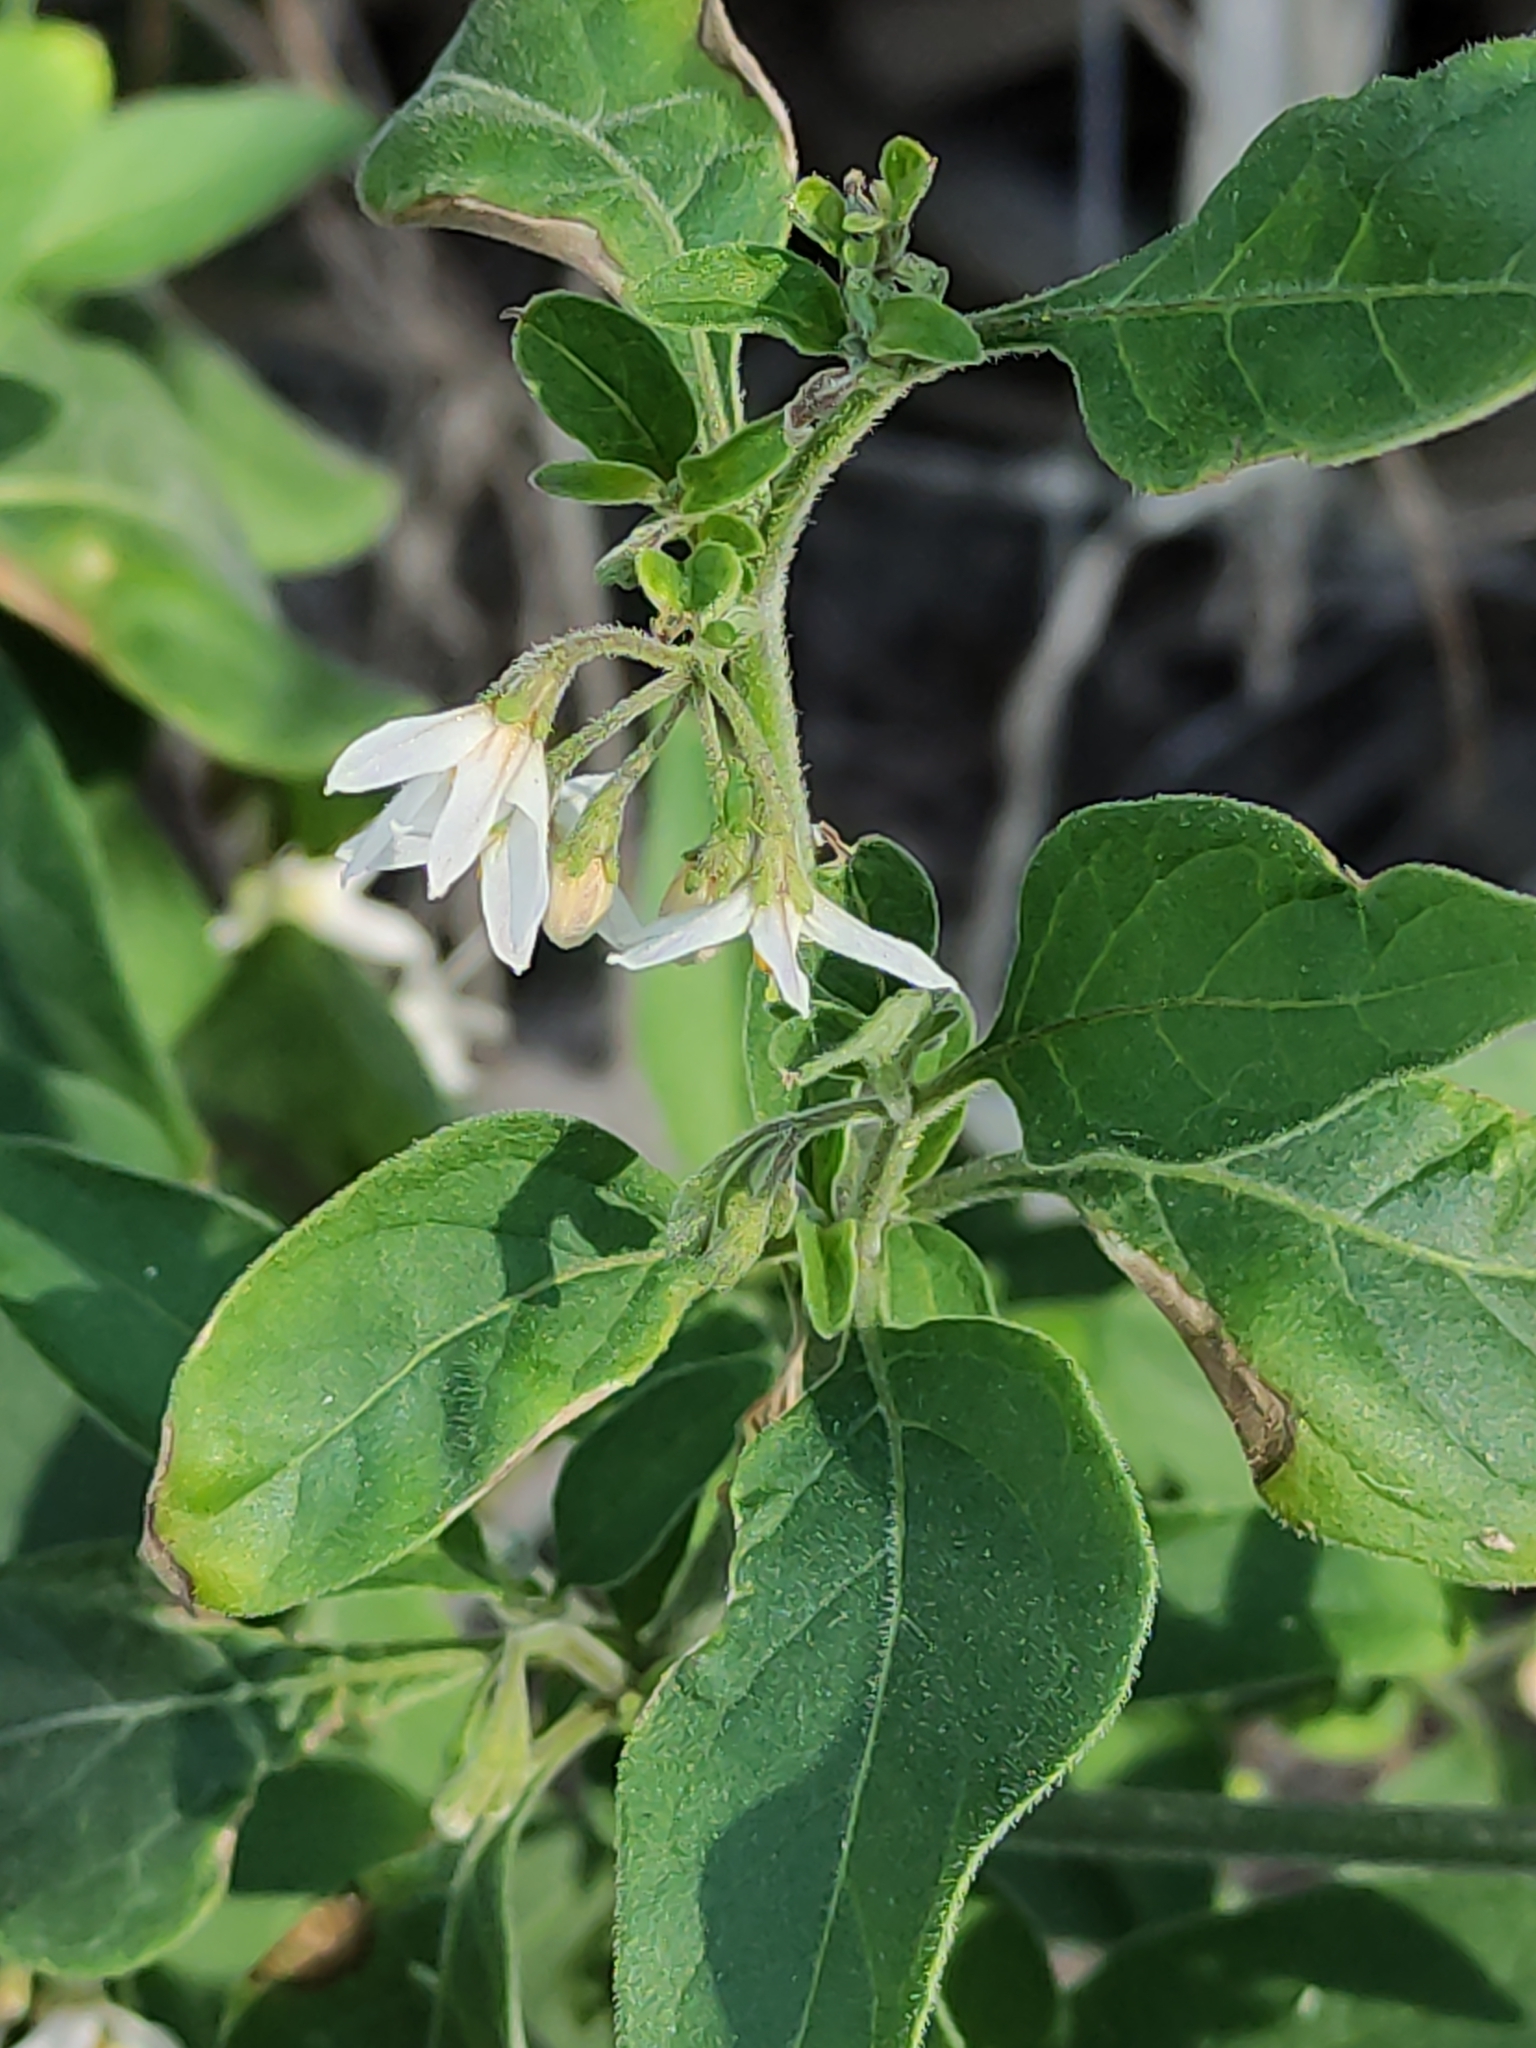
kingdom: Plantae
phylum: Tracheophyta
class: Magnoliopsida
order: Solanales
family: Solanaceae
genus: Solanum
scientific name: Solanum chenopodioides
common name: Tall nightshade
